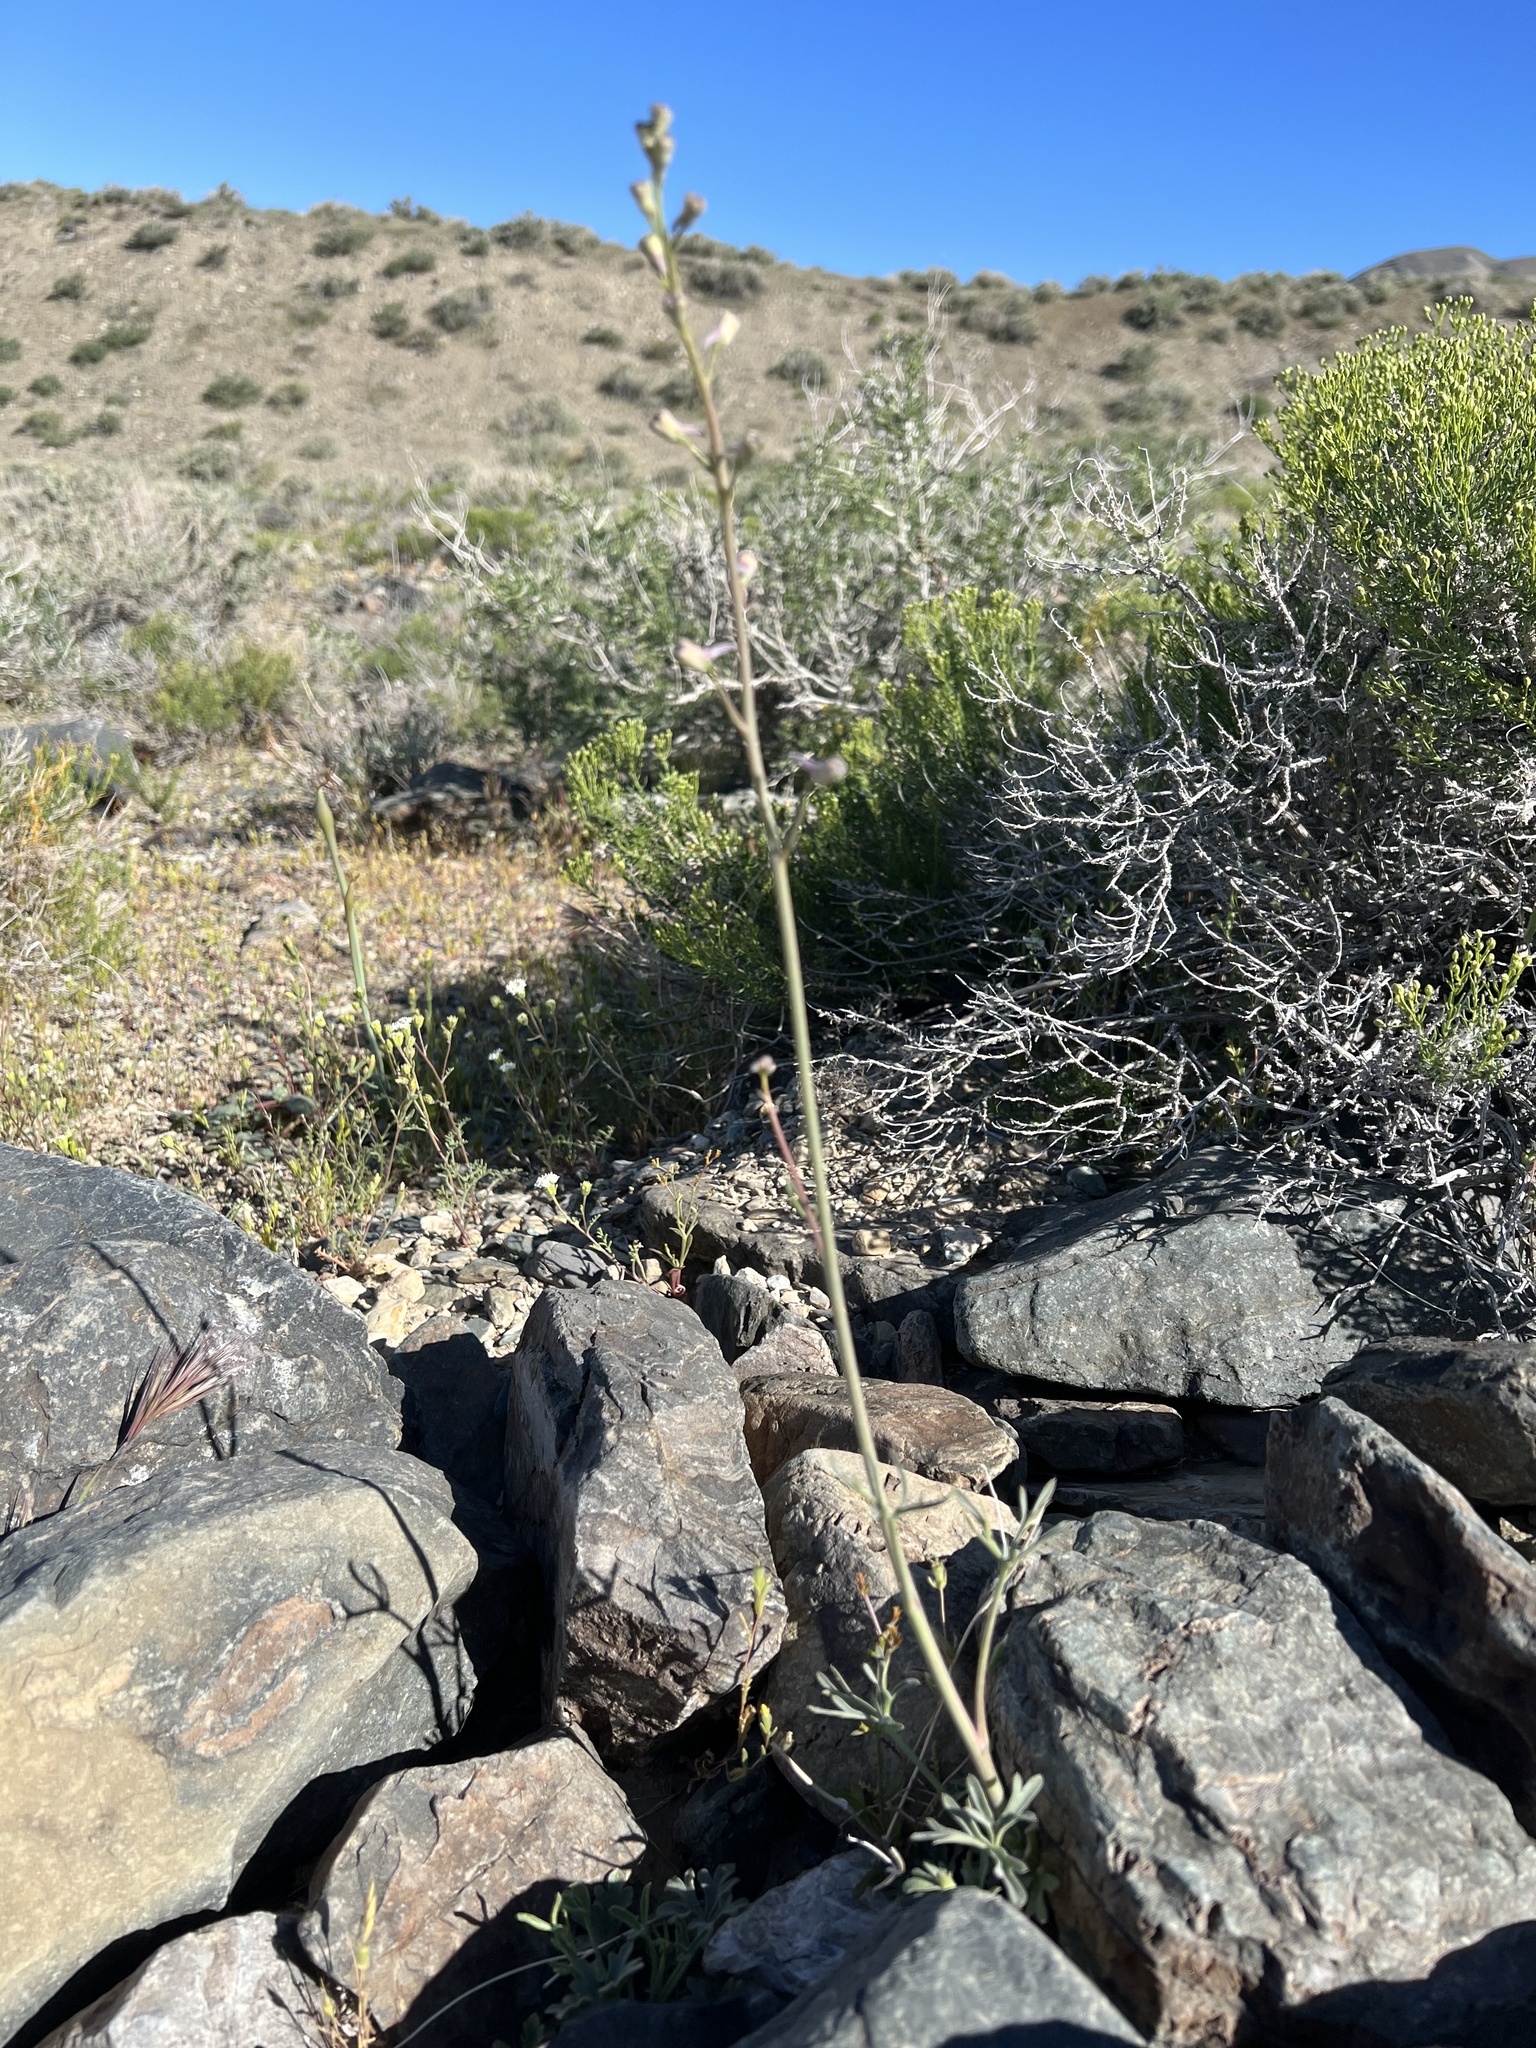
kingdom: Plantae
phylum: Tracheophyta
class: Magnoliopsida
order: Ranunculales
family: Ranunculaceae
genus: Delphinium
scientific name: Delphinium parishii
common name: Apache larkspur
